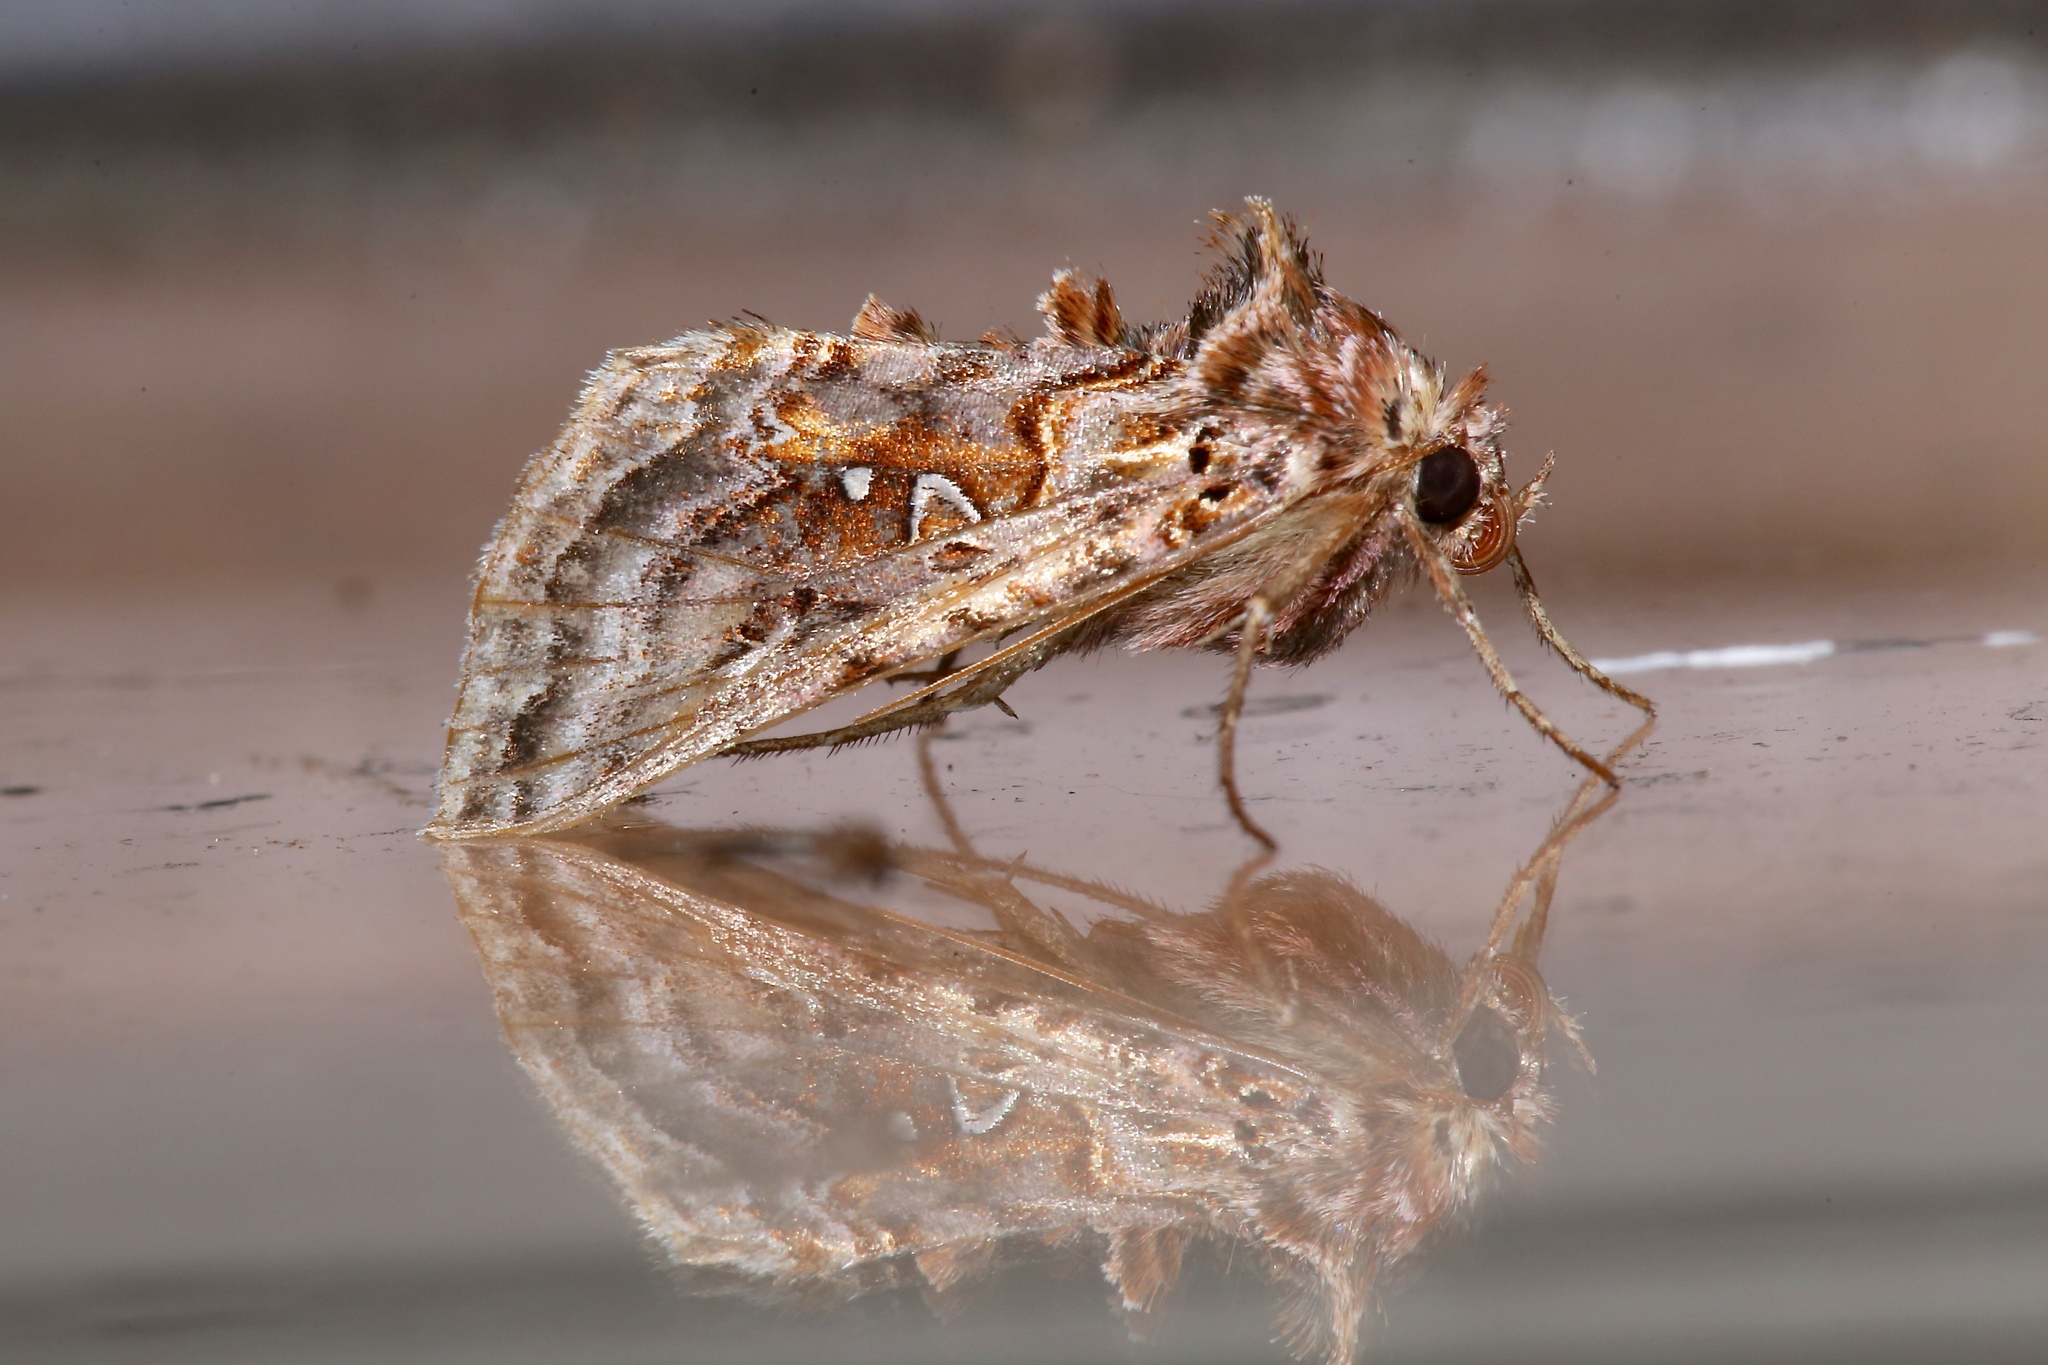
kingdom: Animalia
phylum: Arthropoda
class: Insecta
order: Lepidoptera
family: Noctuidae
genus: Autographa
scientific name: Autographa mappa
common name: Wavy chestnut y moth
